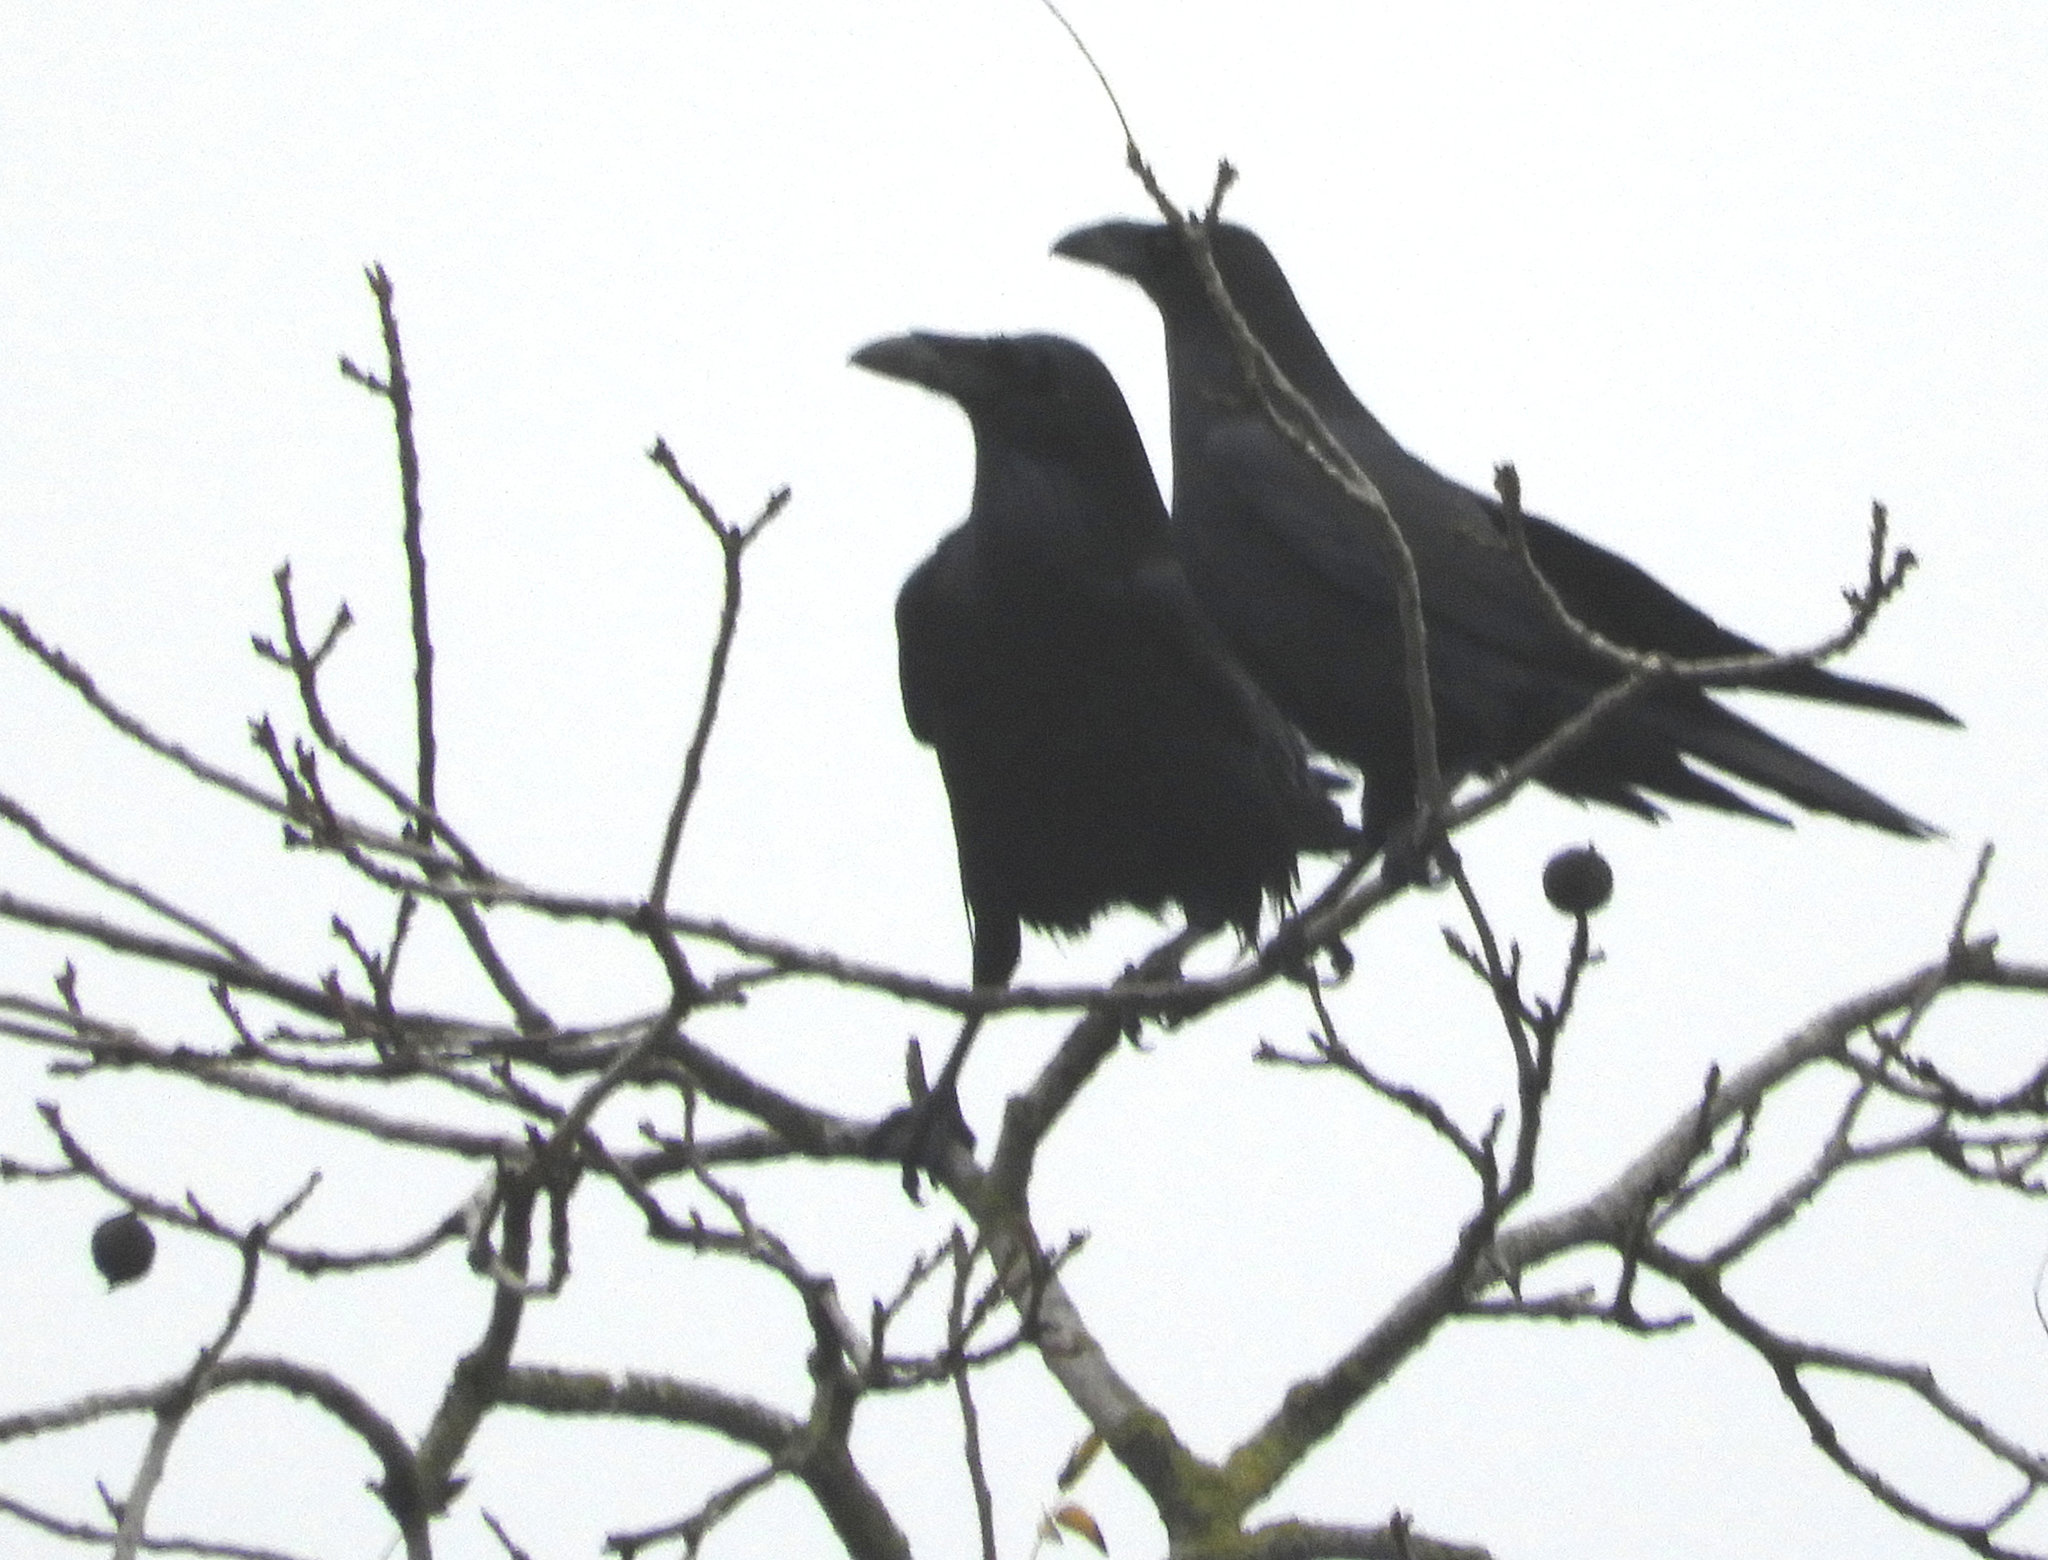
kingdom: Animalia
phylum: Chordata
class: Aves
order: Passeriformes
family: Corvidae
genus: Corvus
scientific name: Corvus corax
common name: Common raven
